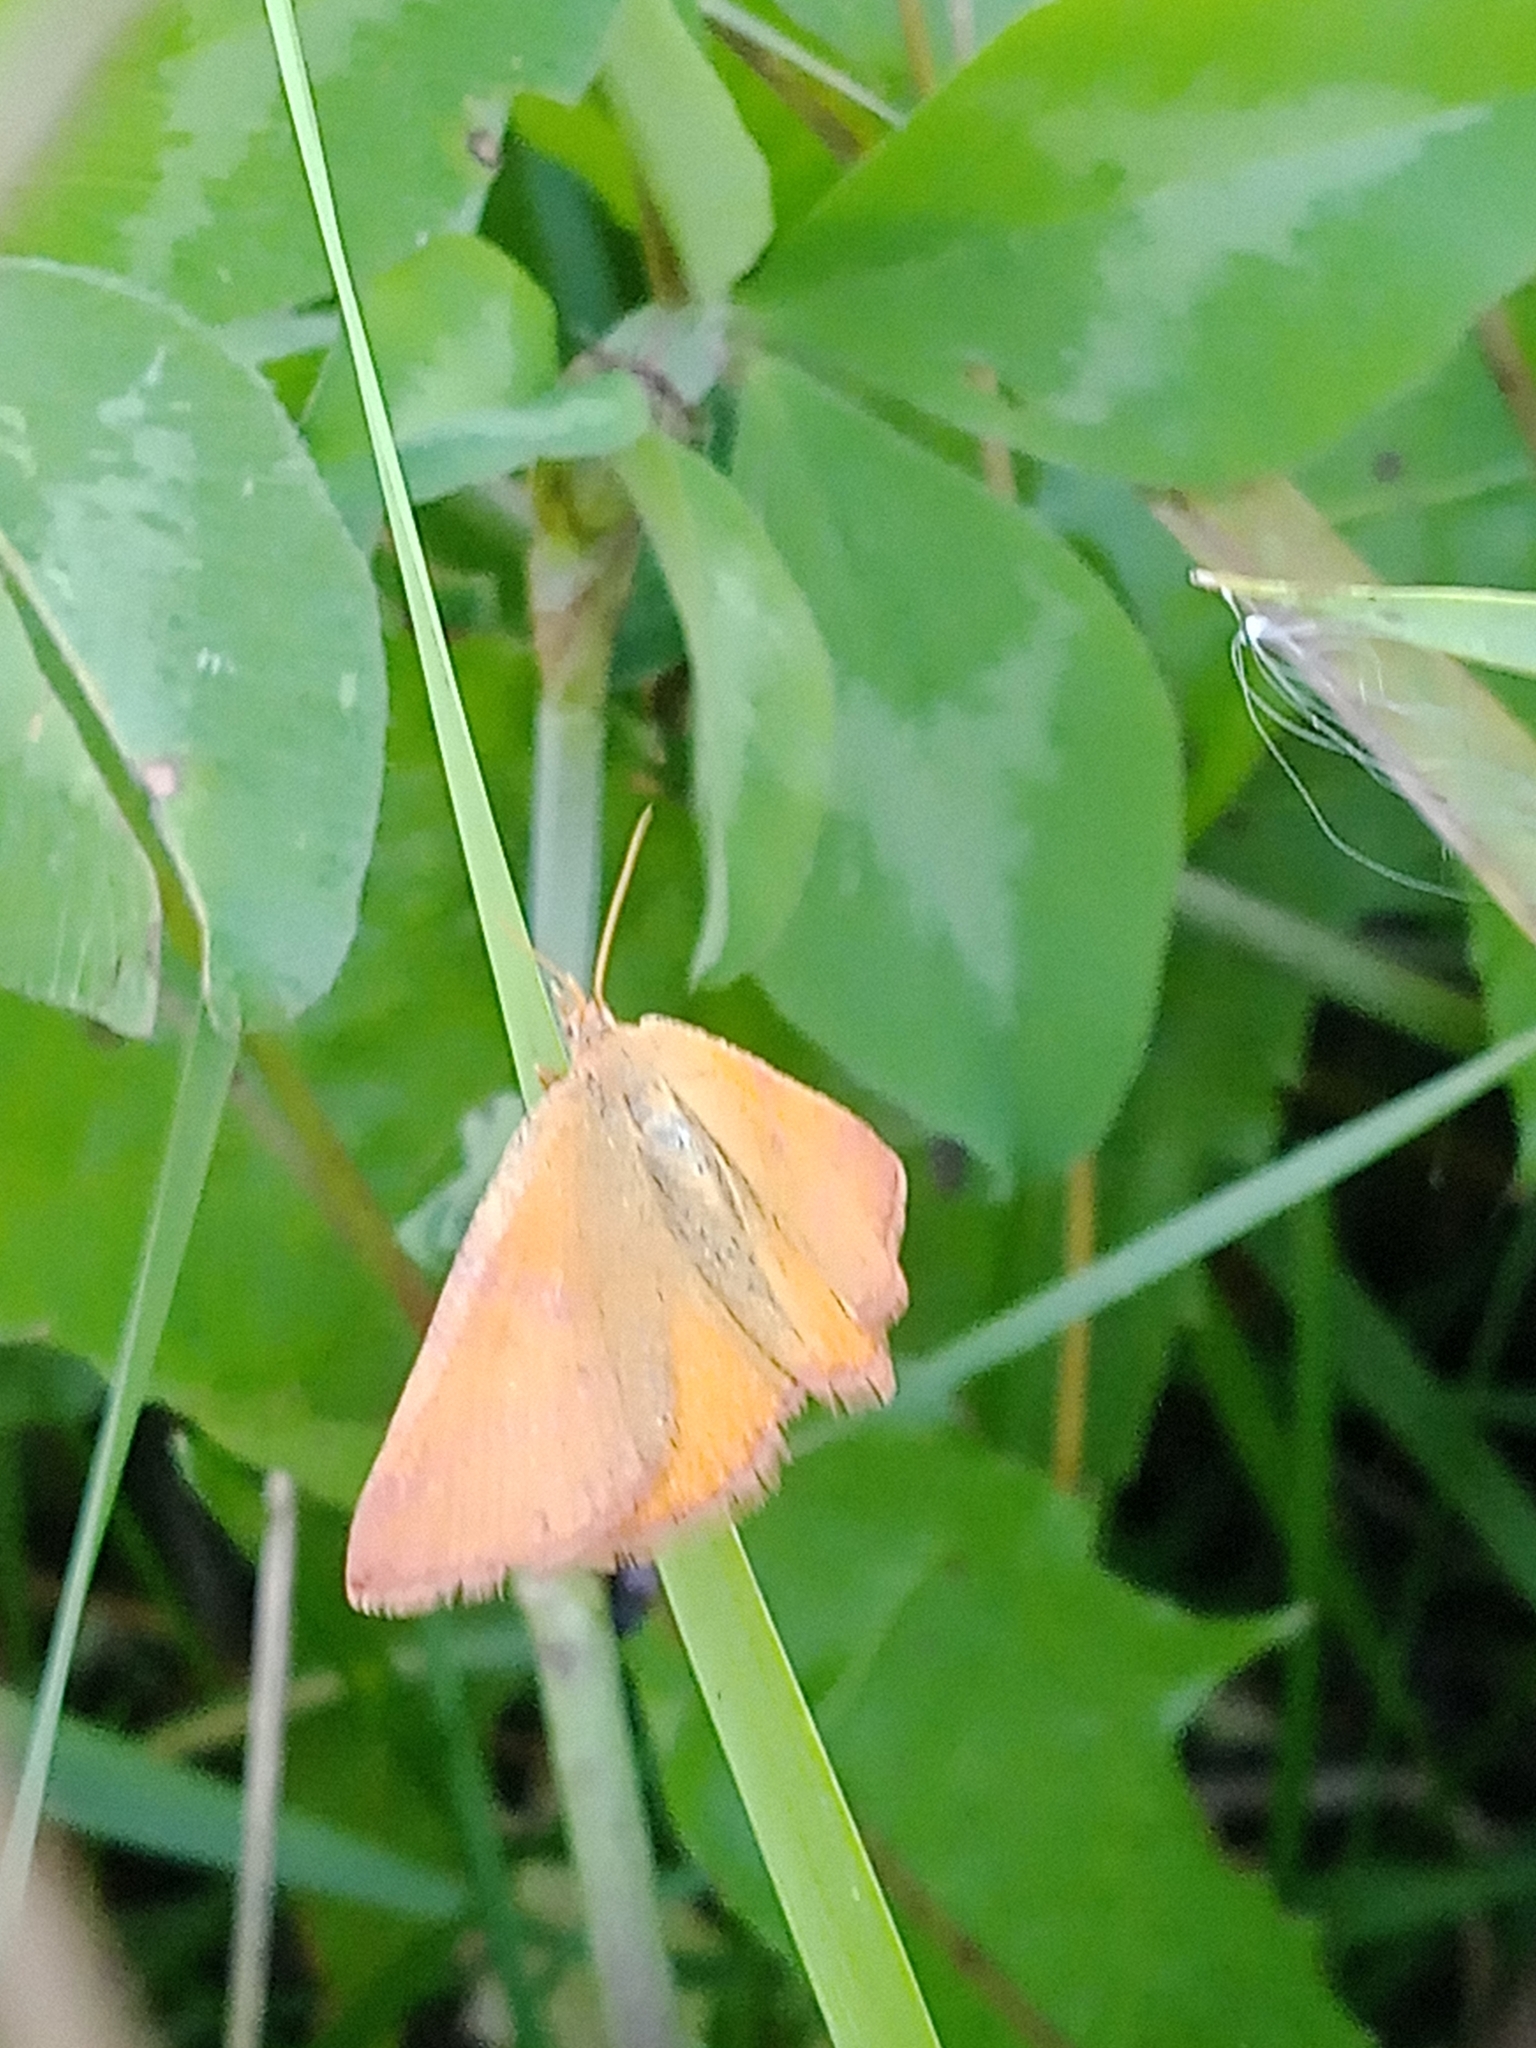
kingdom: Animalia
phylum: Arthropoda
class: Insecta
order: Lepidoptera
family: Geometridae
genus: Lythria
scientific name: Lythria purpuraria
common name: Purple-barred yellow
